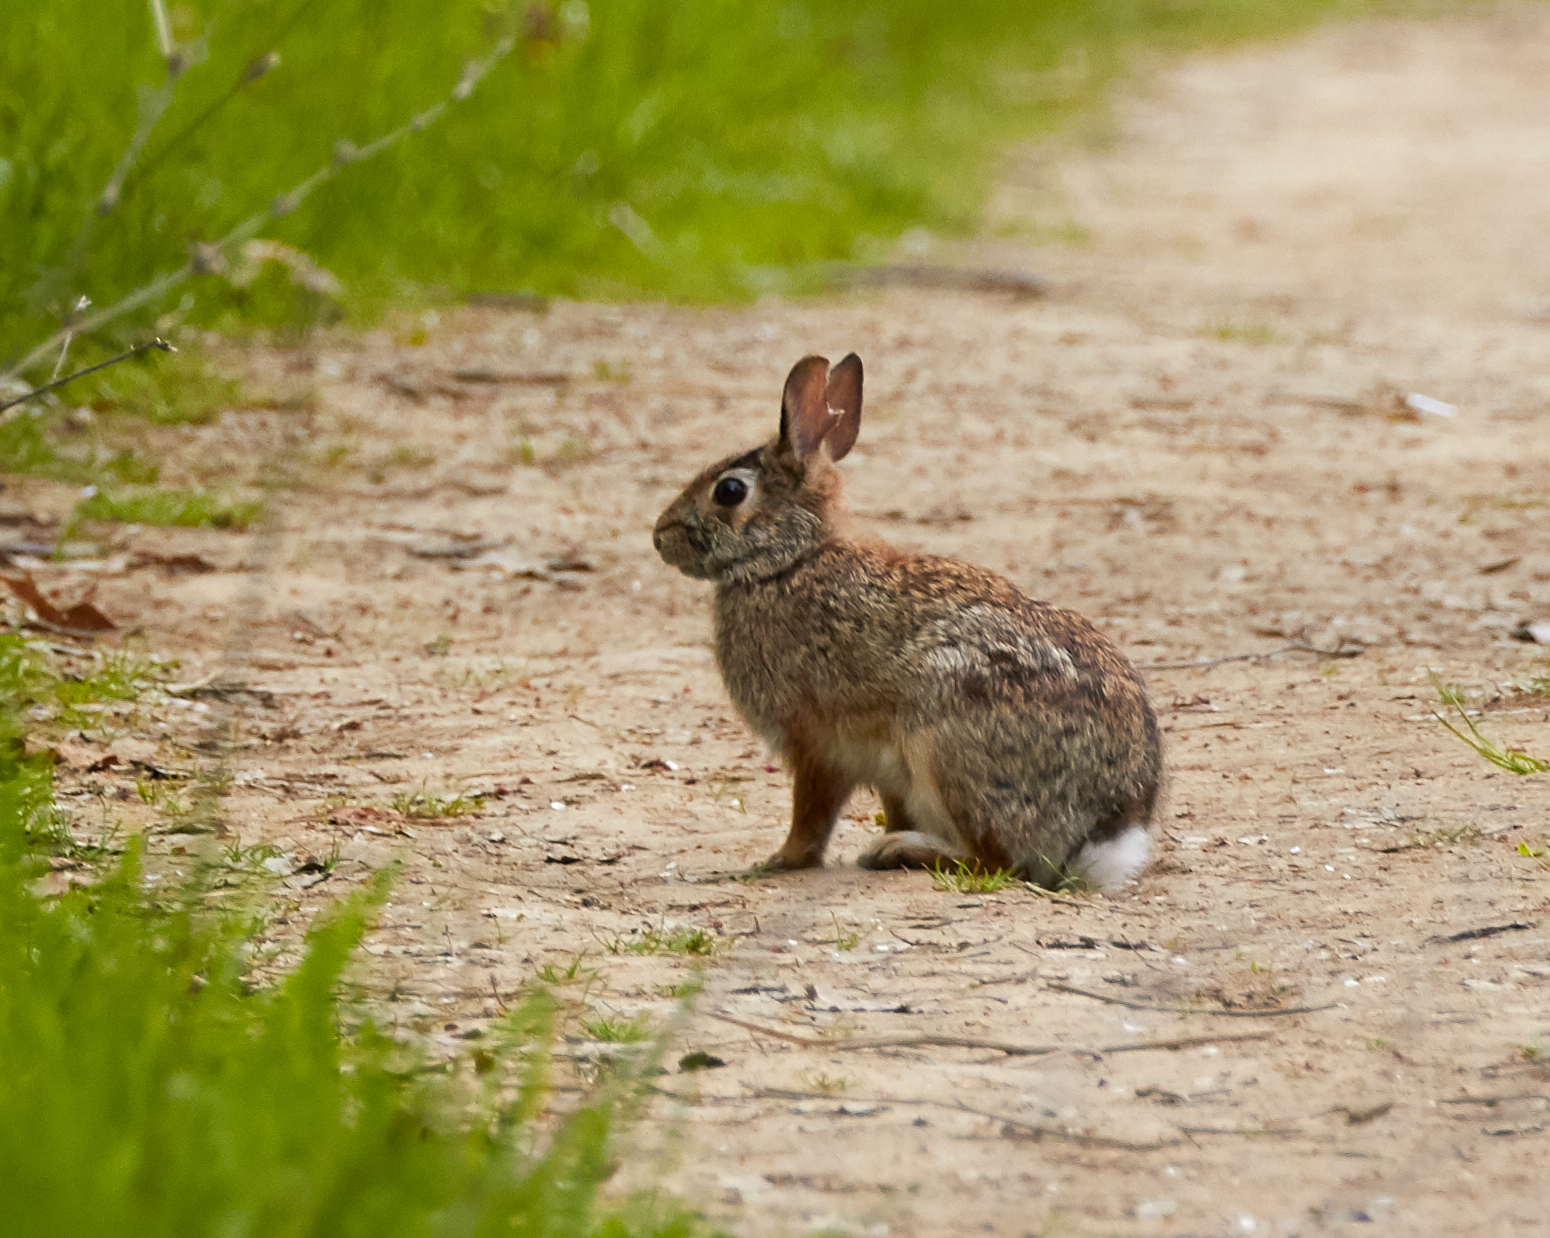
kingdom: Animalia
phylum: Chordata
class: Mammalia
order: Lagomorpha
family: Leporidae
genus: Sylvilagus
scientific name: Sylvilagus floridanus
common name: Eastern cottontail
